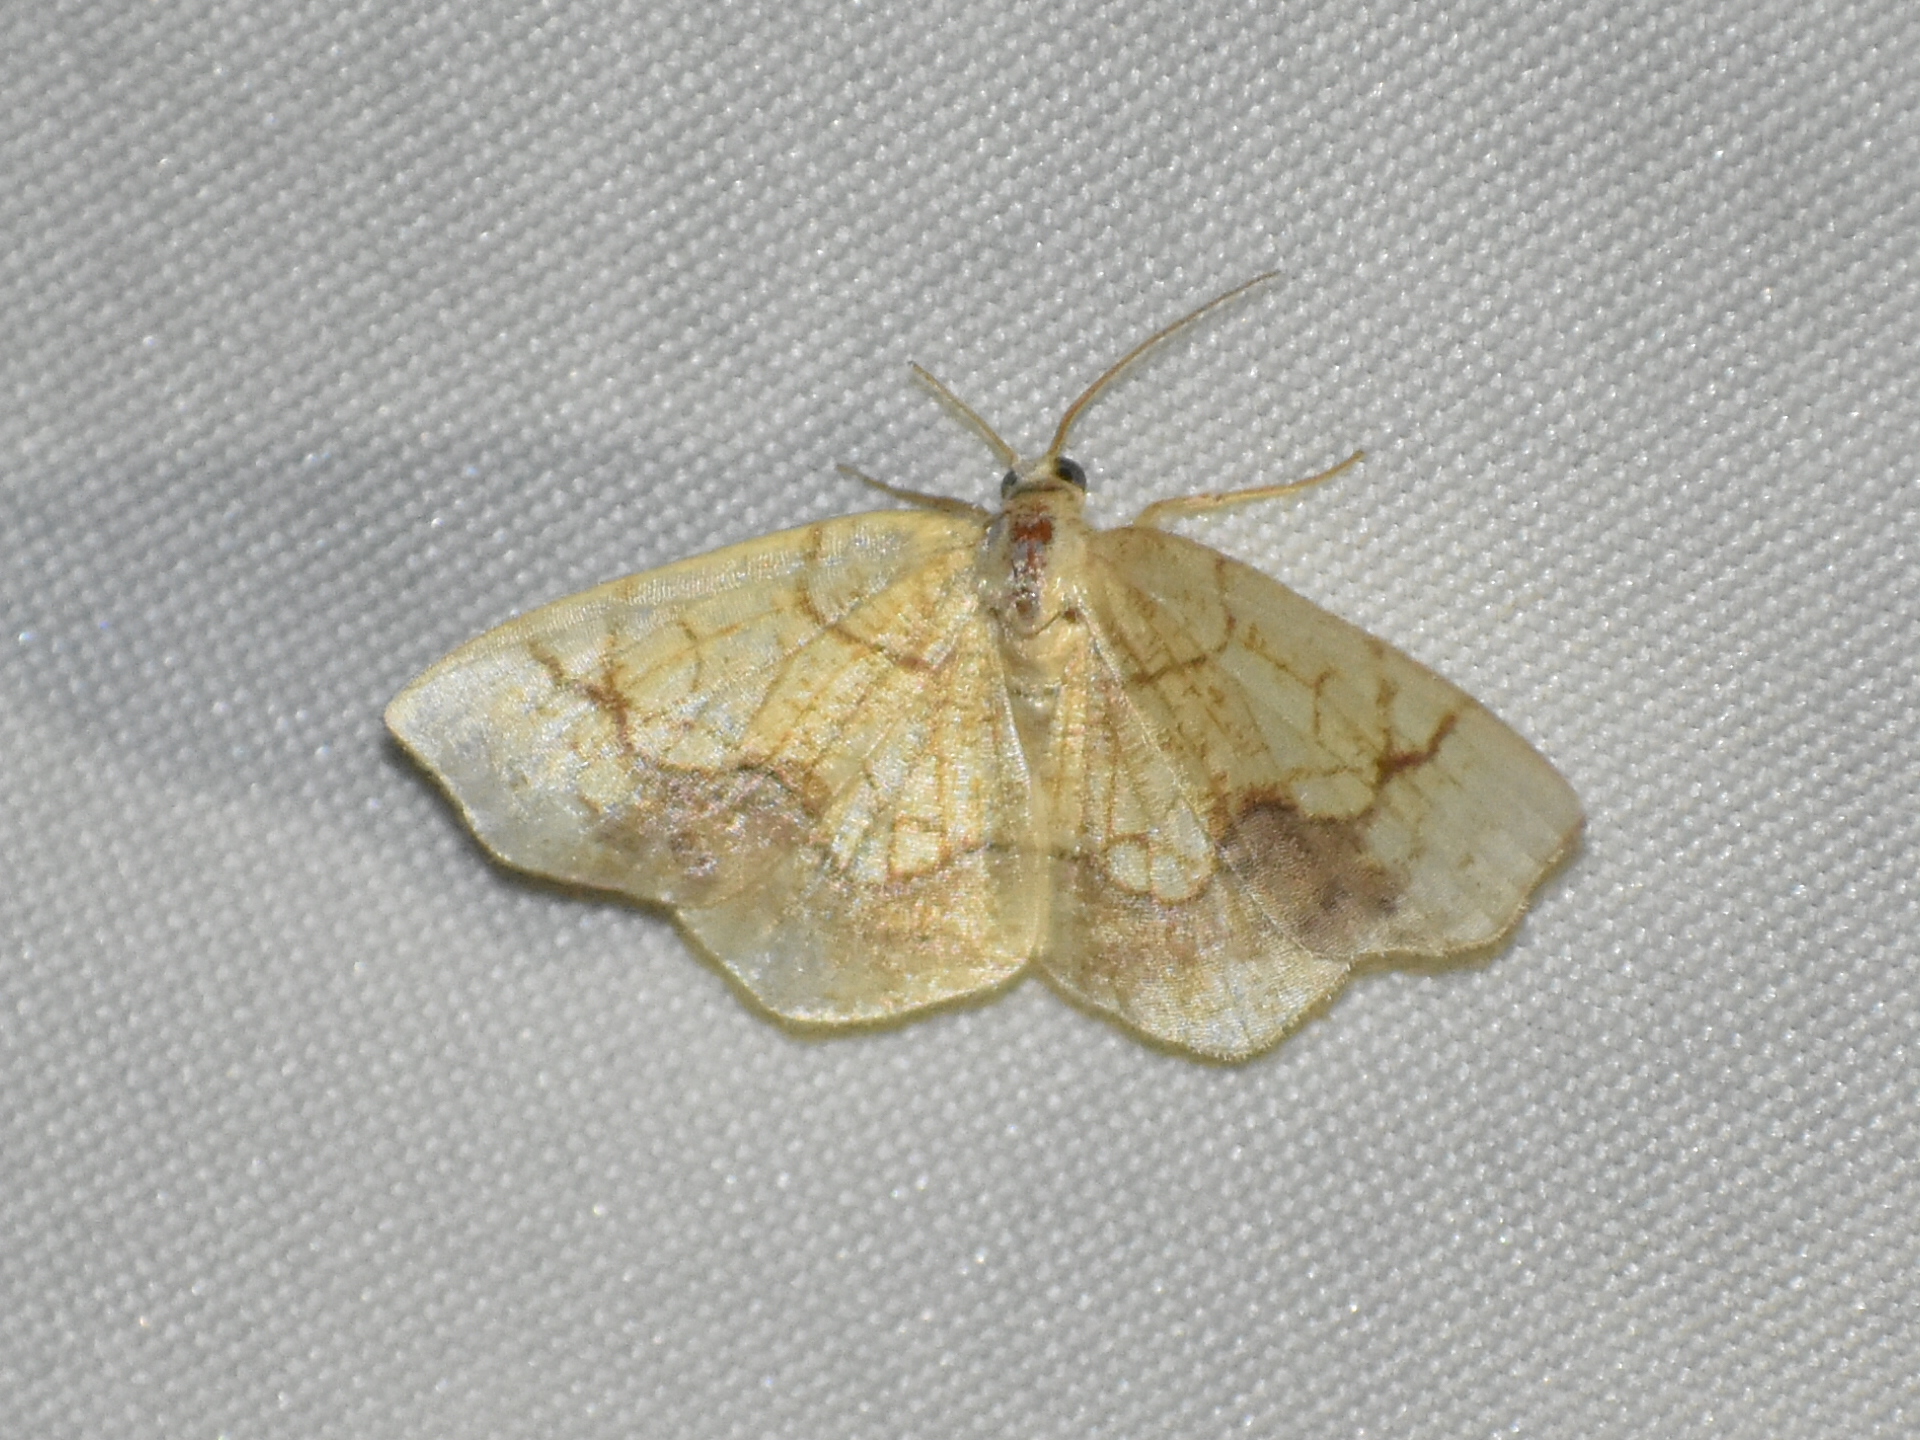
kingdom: Animalia
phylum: Arthropoda
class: Insecta
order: Lepidoptera
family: Geometridae
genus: Nematocampa
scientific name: Nematocampa resistaria
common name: Horned spanworm moth
